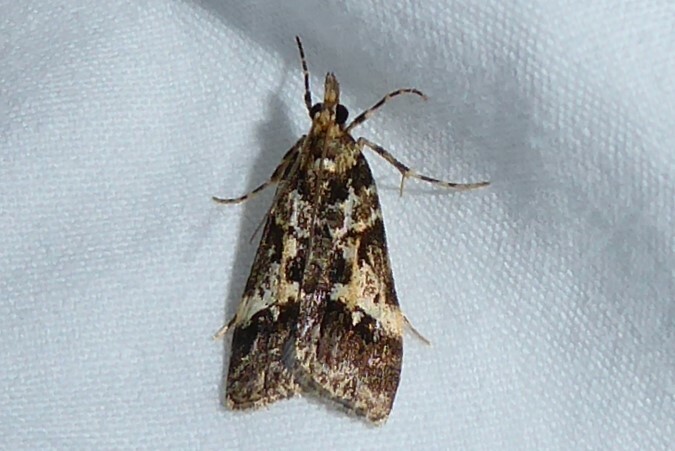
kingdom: Animalia
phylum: Arthropoda
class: Insecta
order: Lepidoptera
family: Crambidae
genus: Eudonia
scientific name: Eudonia characta
